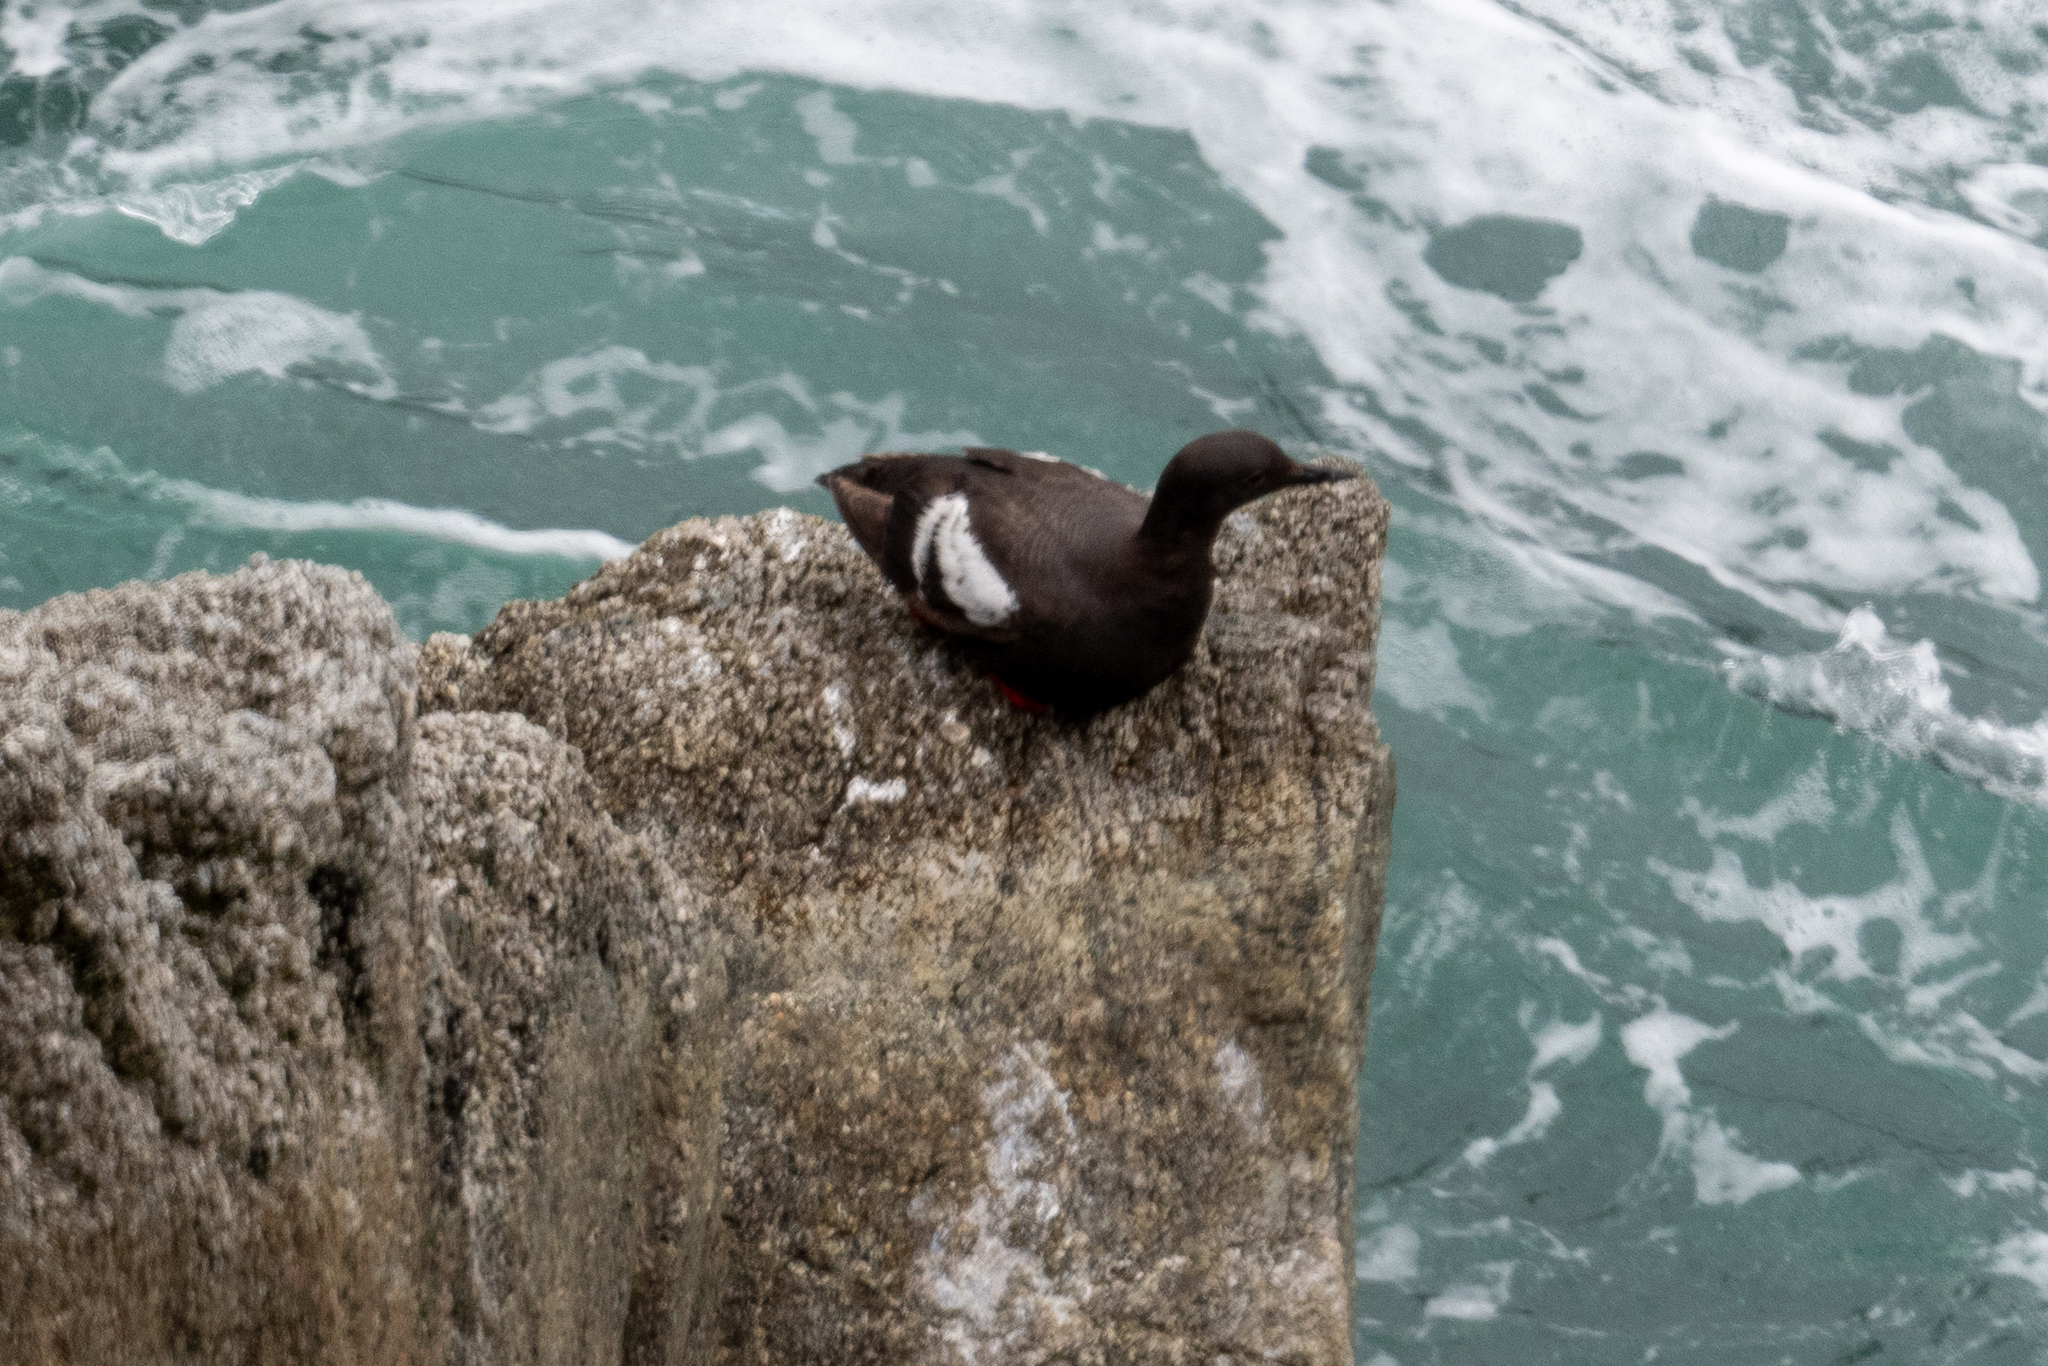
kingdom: Animalia
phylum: Chordata
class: Aves
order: Charadriiformes
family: Alcidae
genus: Cepphus
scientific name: Cepphus columba
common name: Pigeon guillemot
